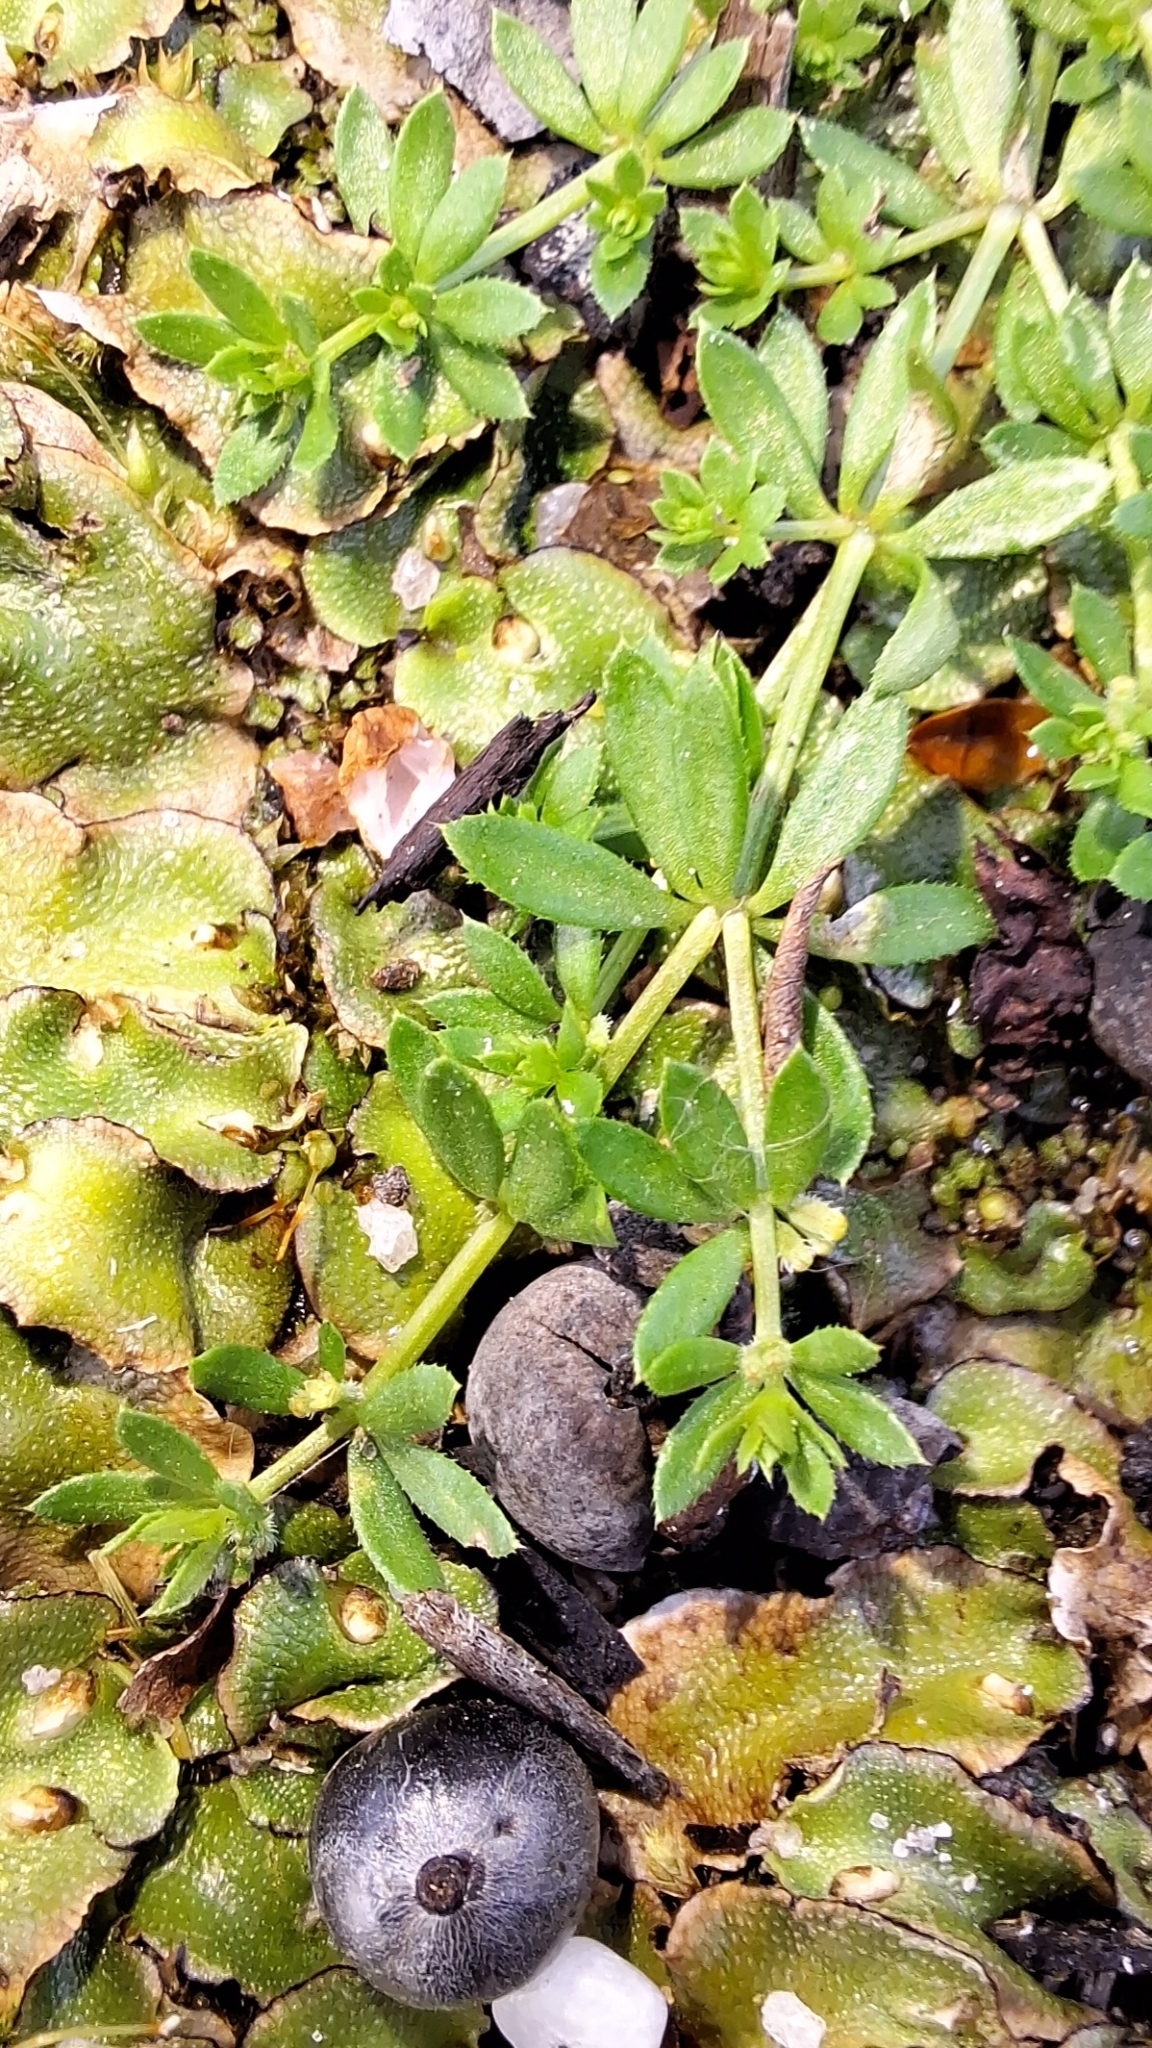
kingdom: Plantae
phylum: Tracheophyta
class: Magnoliopsida
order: Gentianales
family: Rubiaceae
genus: Galium
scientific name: Galium murale
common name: Yellow wall bedstraw
